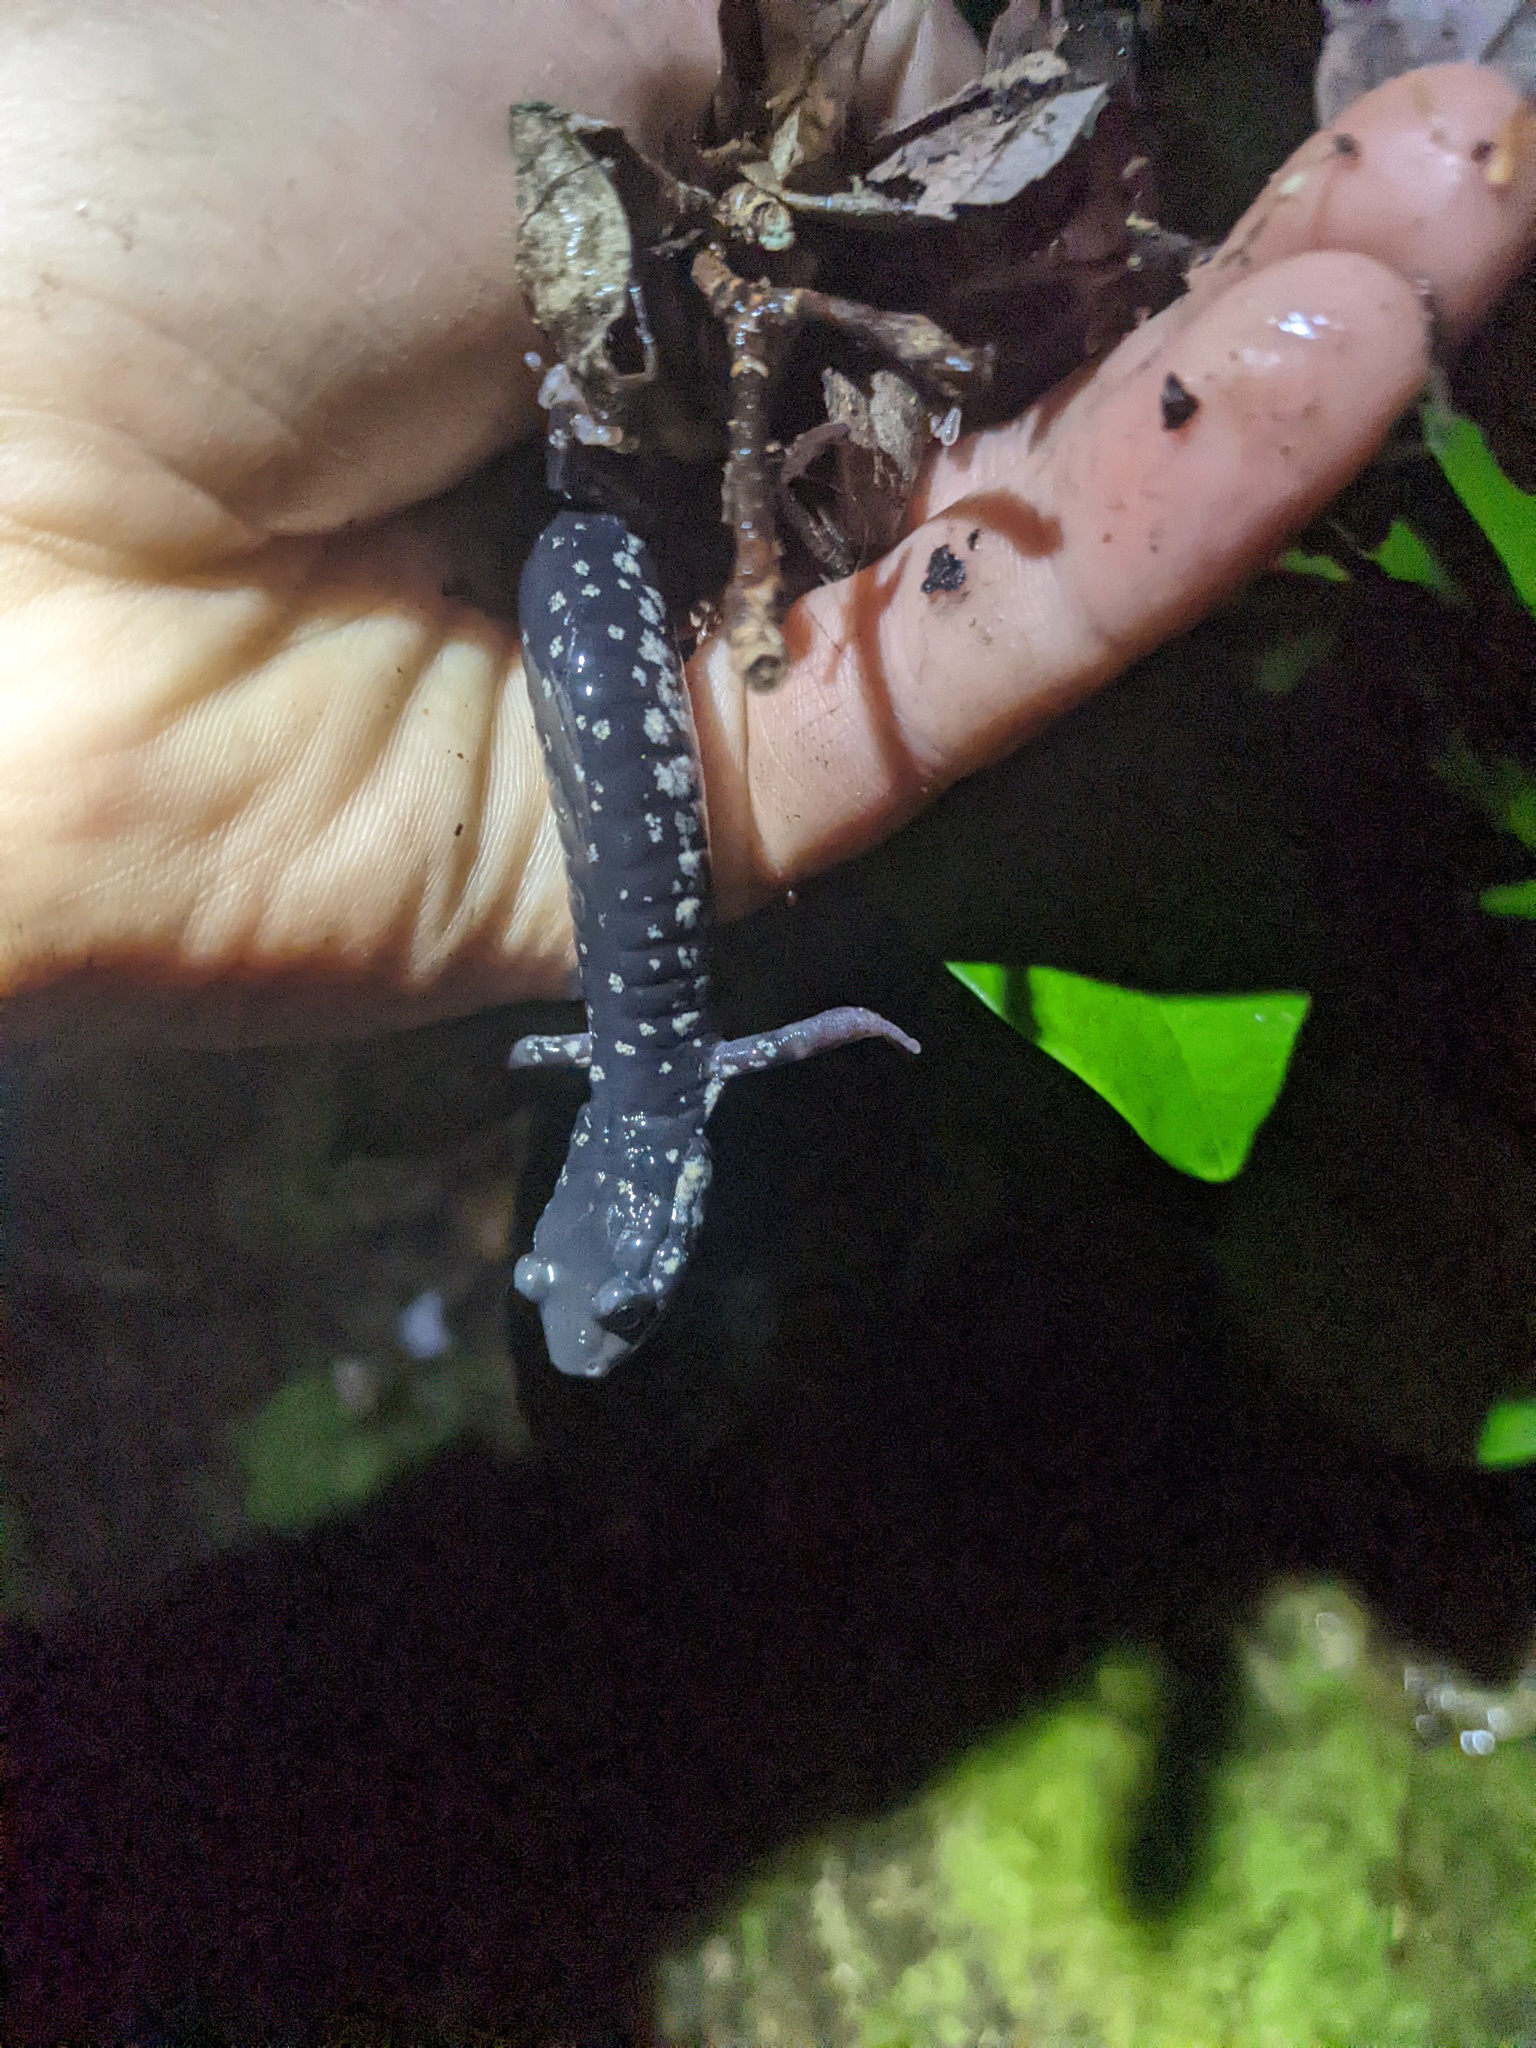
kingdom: Animalia
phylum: Chordata
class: Amphibia
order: Caudata
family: Plethodontidae
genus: Plethodon
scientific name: Plethodon glutinosus
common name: Northern slimy salamander
